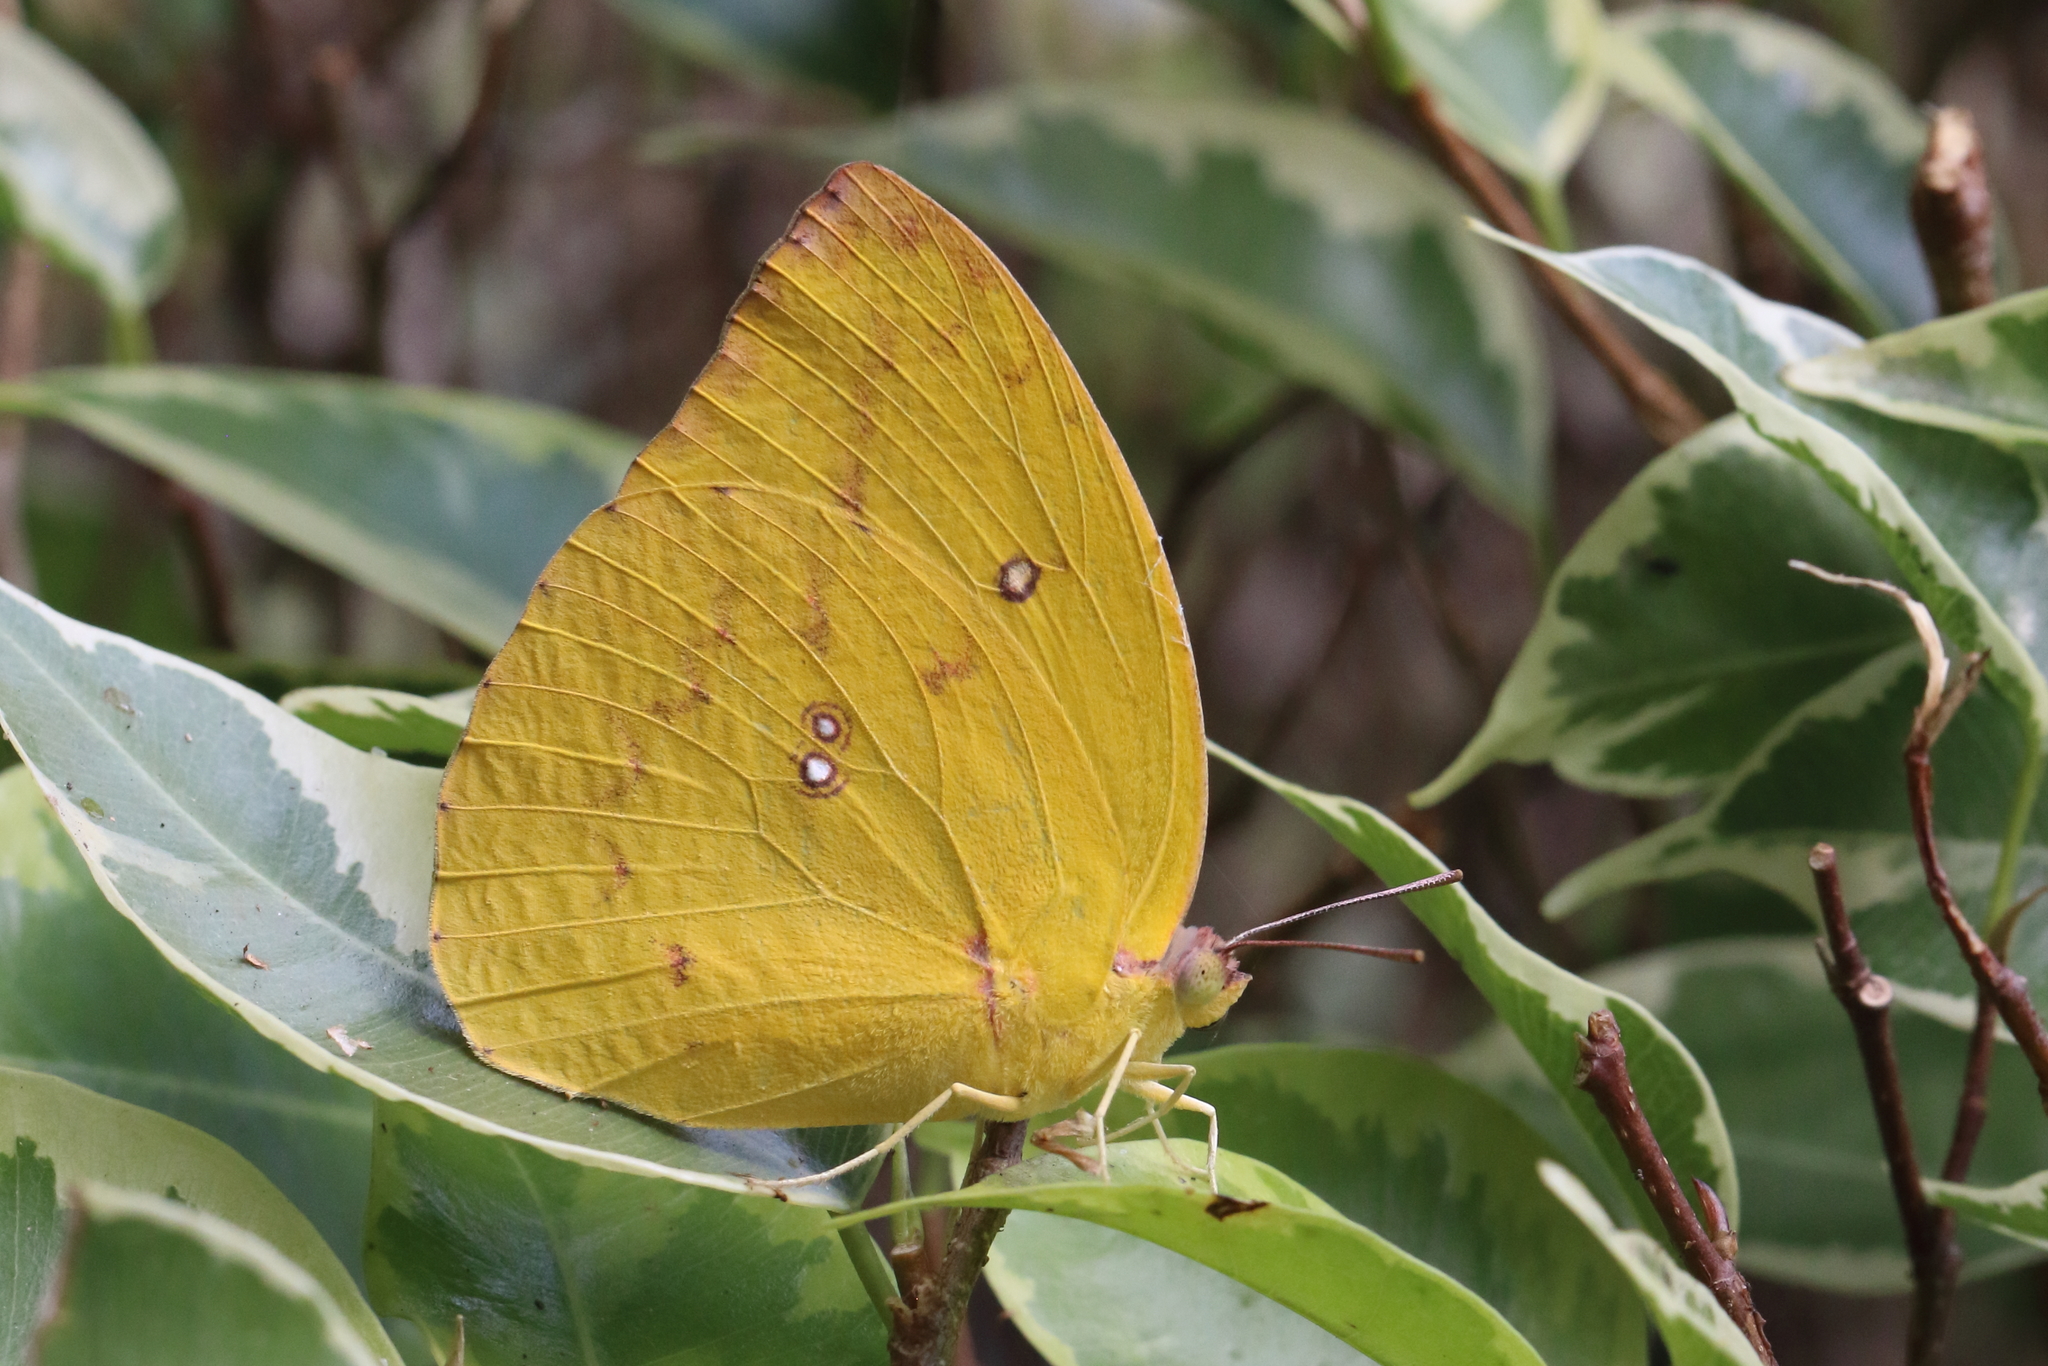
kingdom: Animalia
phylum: Arthropoda
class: Insecta
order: Lepidoptera
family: Pieridae
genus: Catopsilia
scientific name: Catopsilia pomona
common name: Common emigrant
